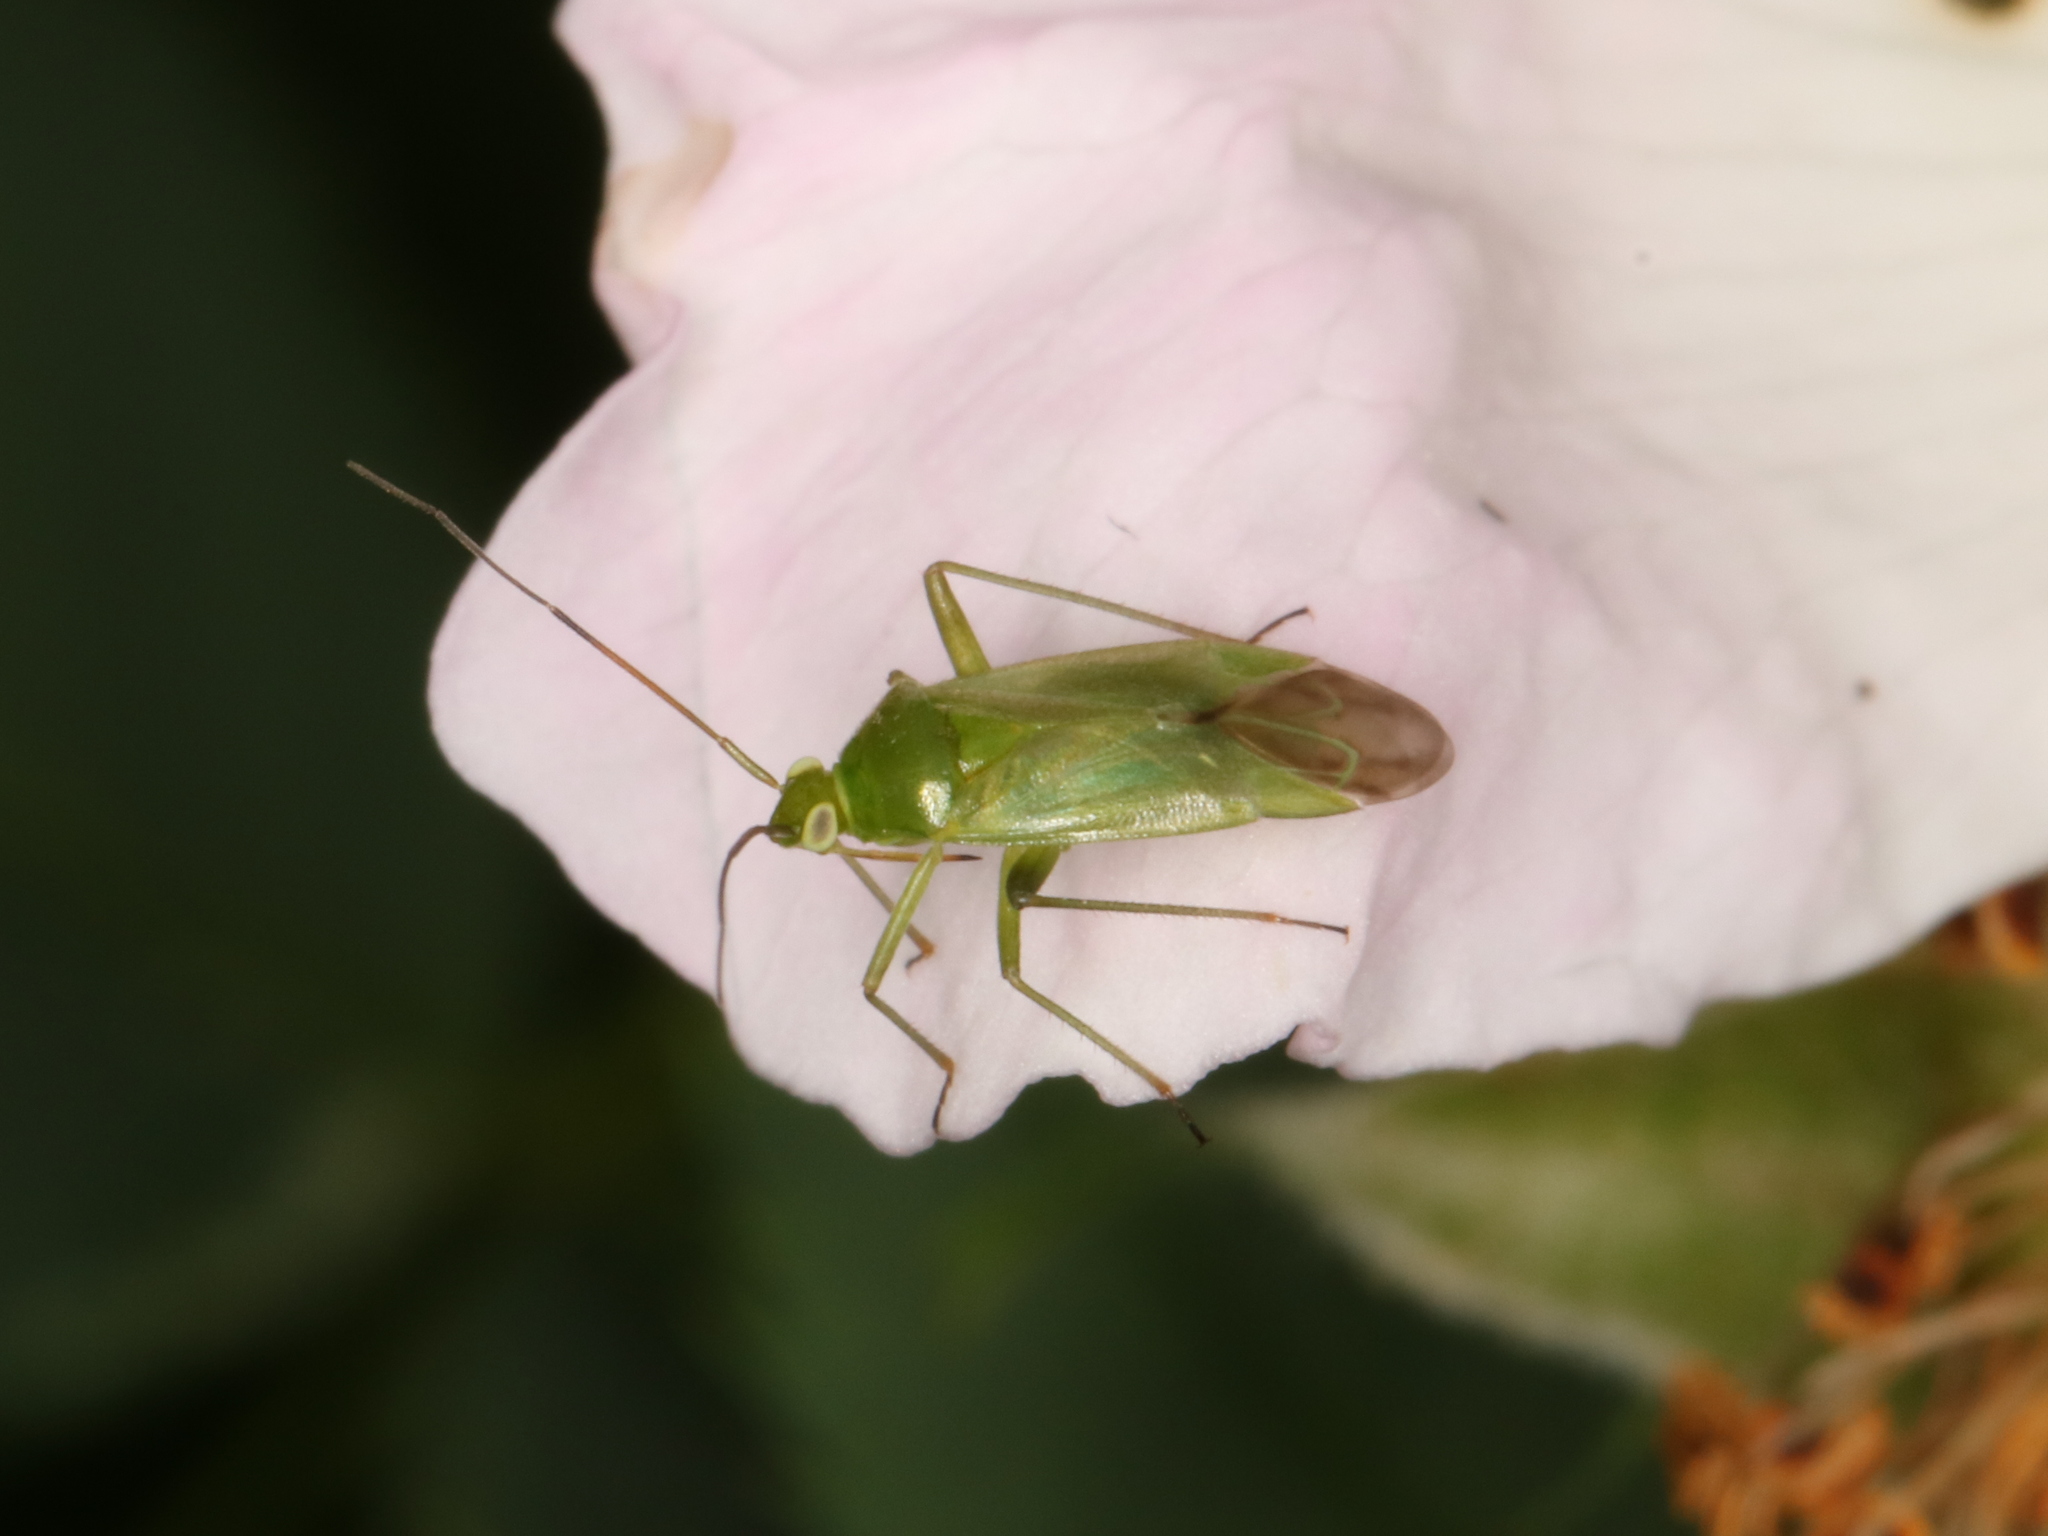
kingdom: Animalia
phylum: Arthropoda
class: Insecta
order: Hemiptera
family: Miridae
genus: Lygocoris
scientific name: Lygocoris pabulinus
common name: Common green capsid
